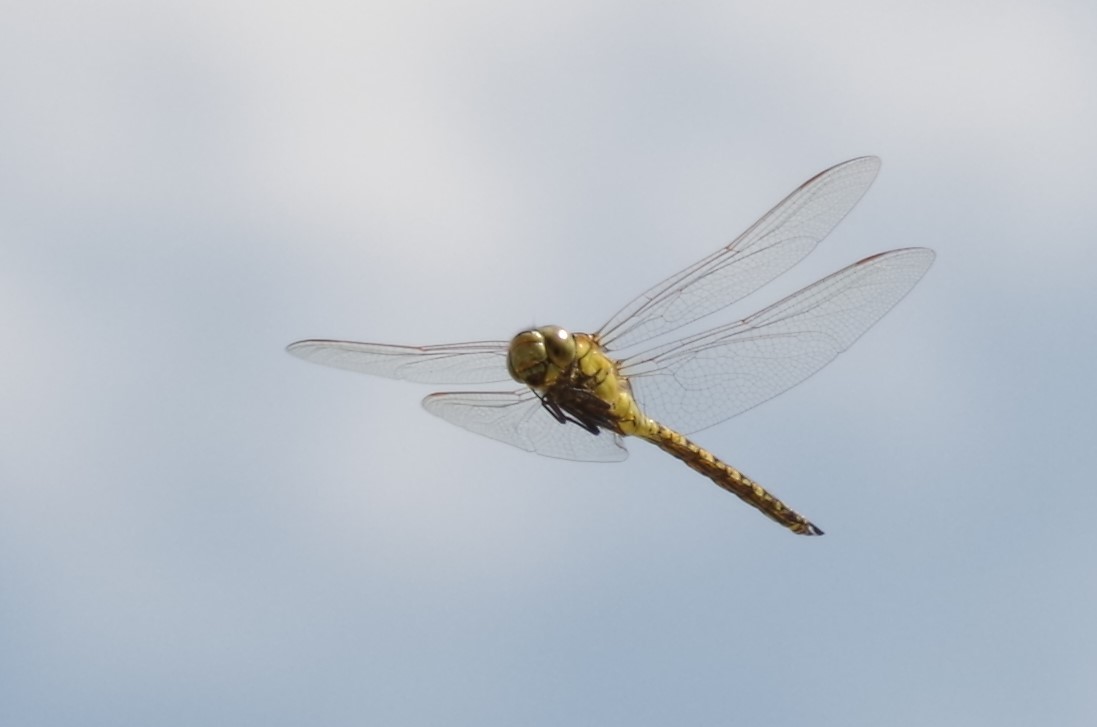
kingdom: Animalia
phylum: Arthropoda
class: Insecta
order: Odonata
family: Aeshnidae
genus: Aeshna
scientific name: Aeshna affinis
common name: Southern migrant hawker
